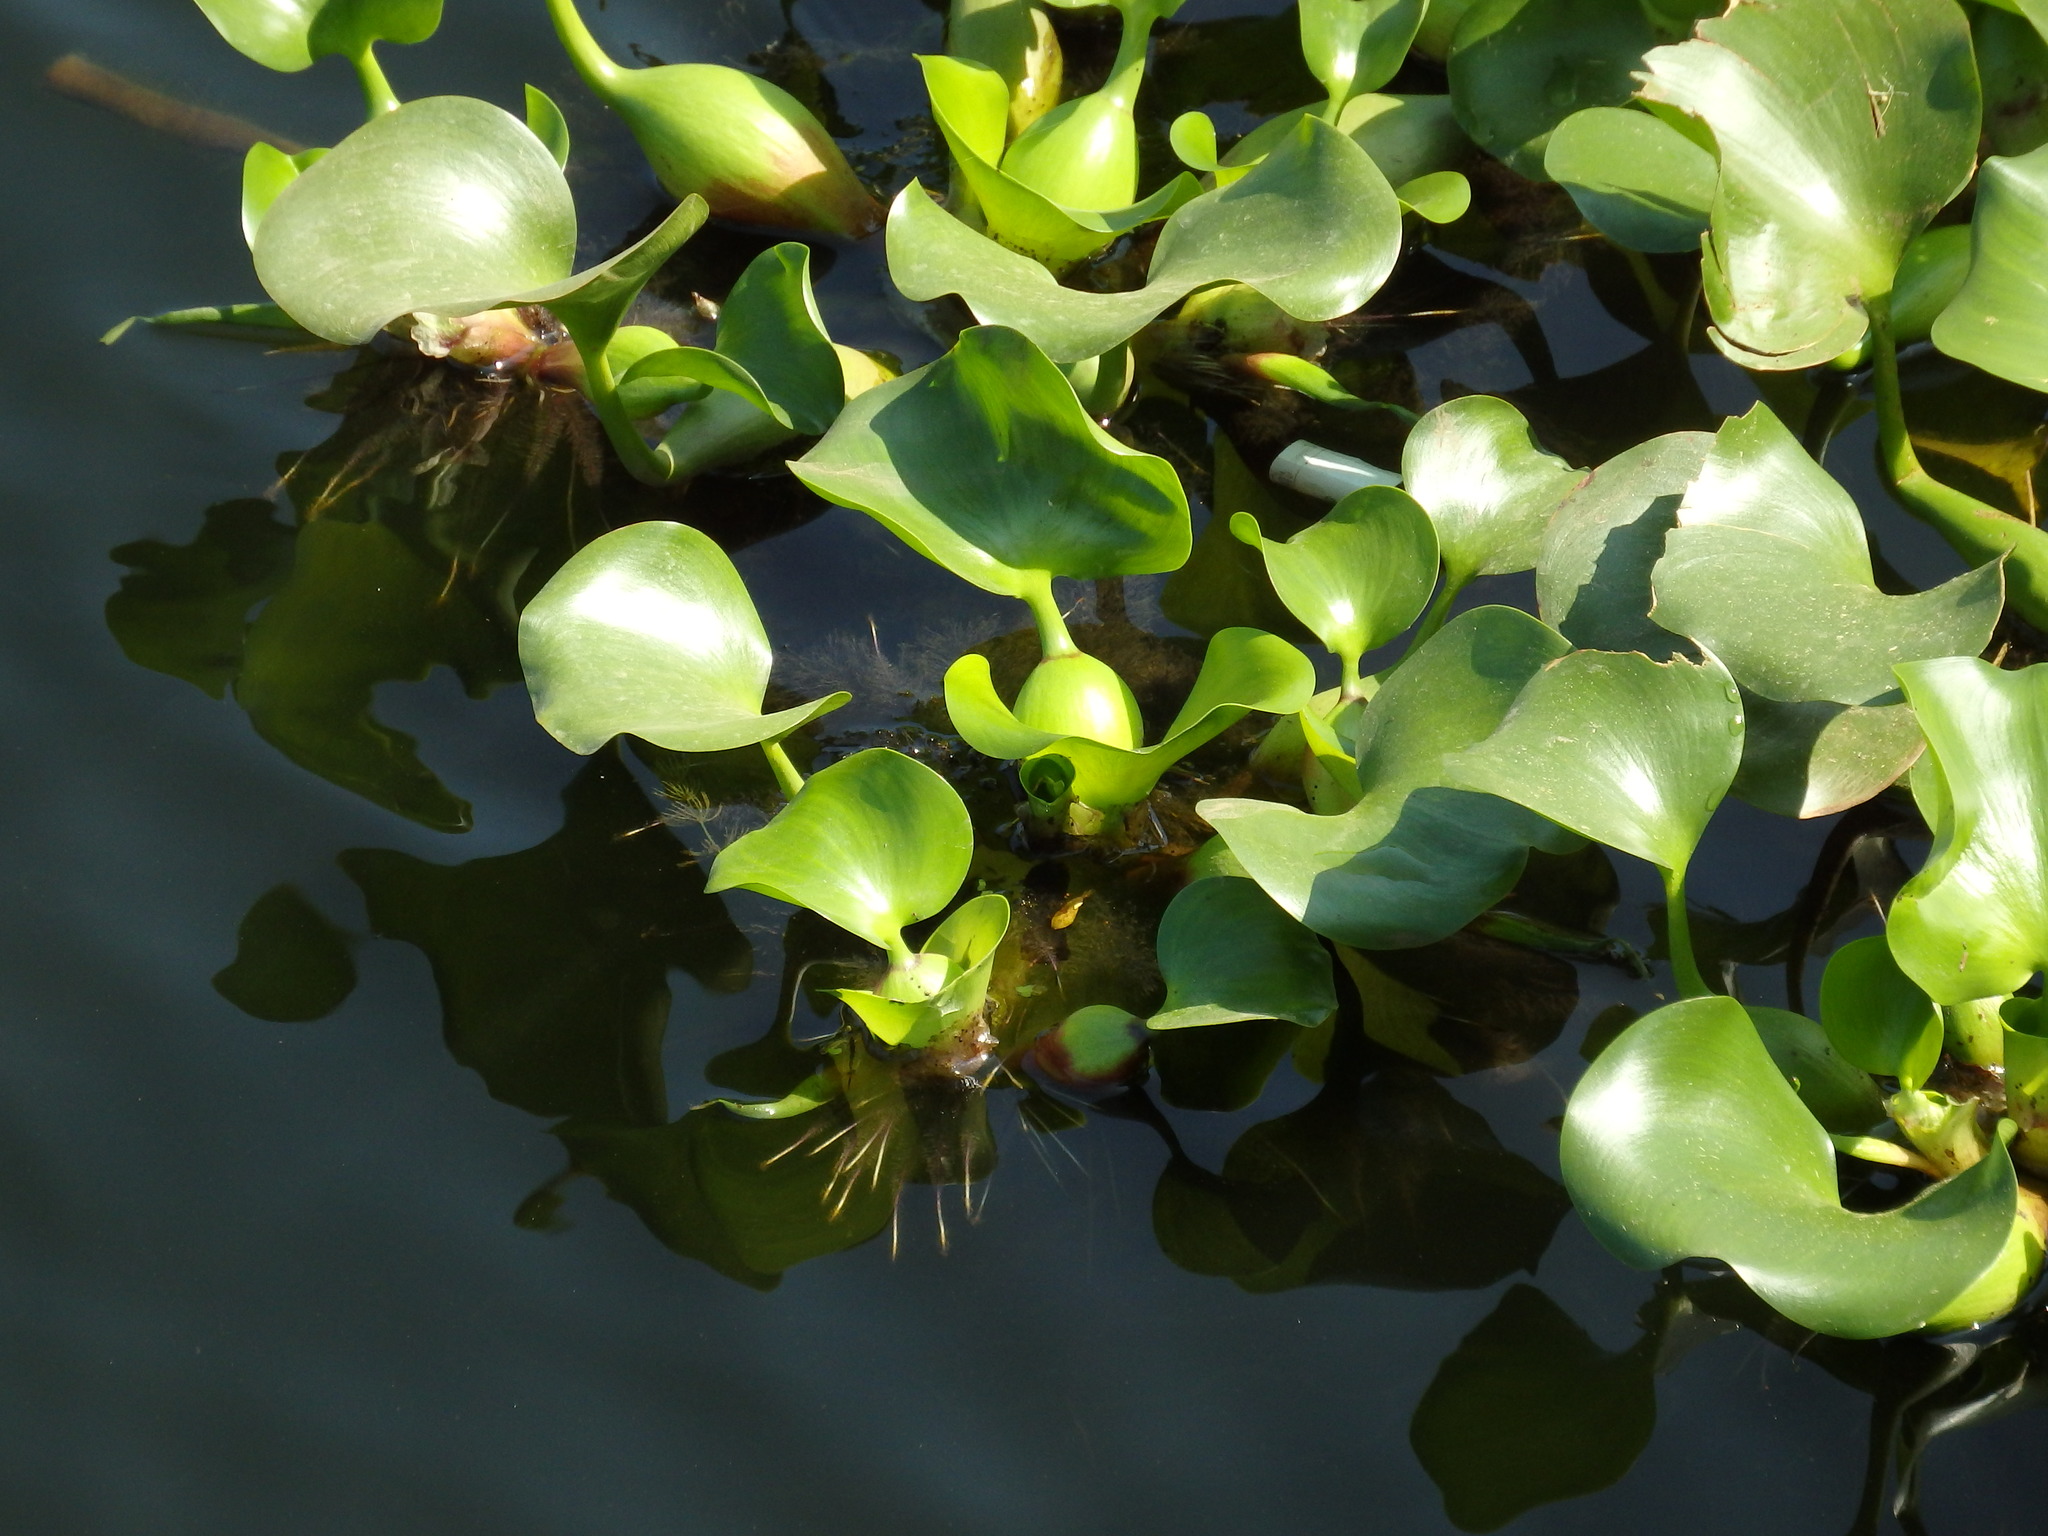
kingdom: Plantae
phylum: Tracheophyta
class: Liliopsida
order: Commelinales
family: Pontederiaceae
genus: Pontederia
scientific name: Pontederia crassipes
